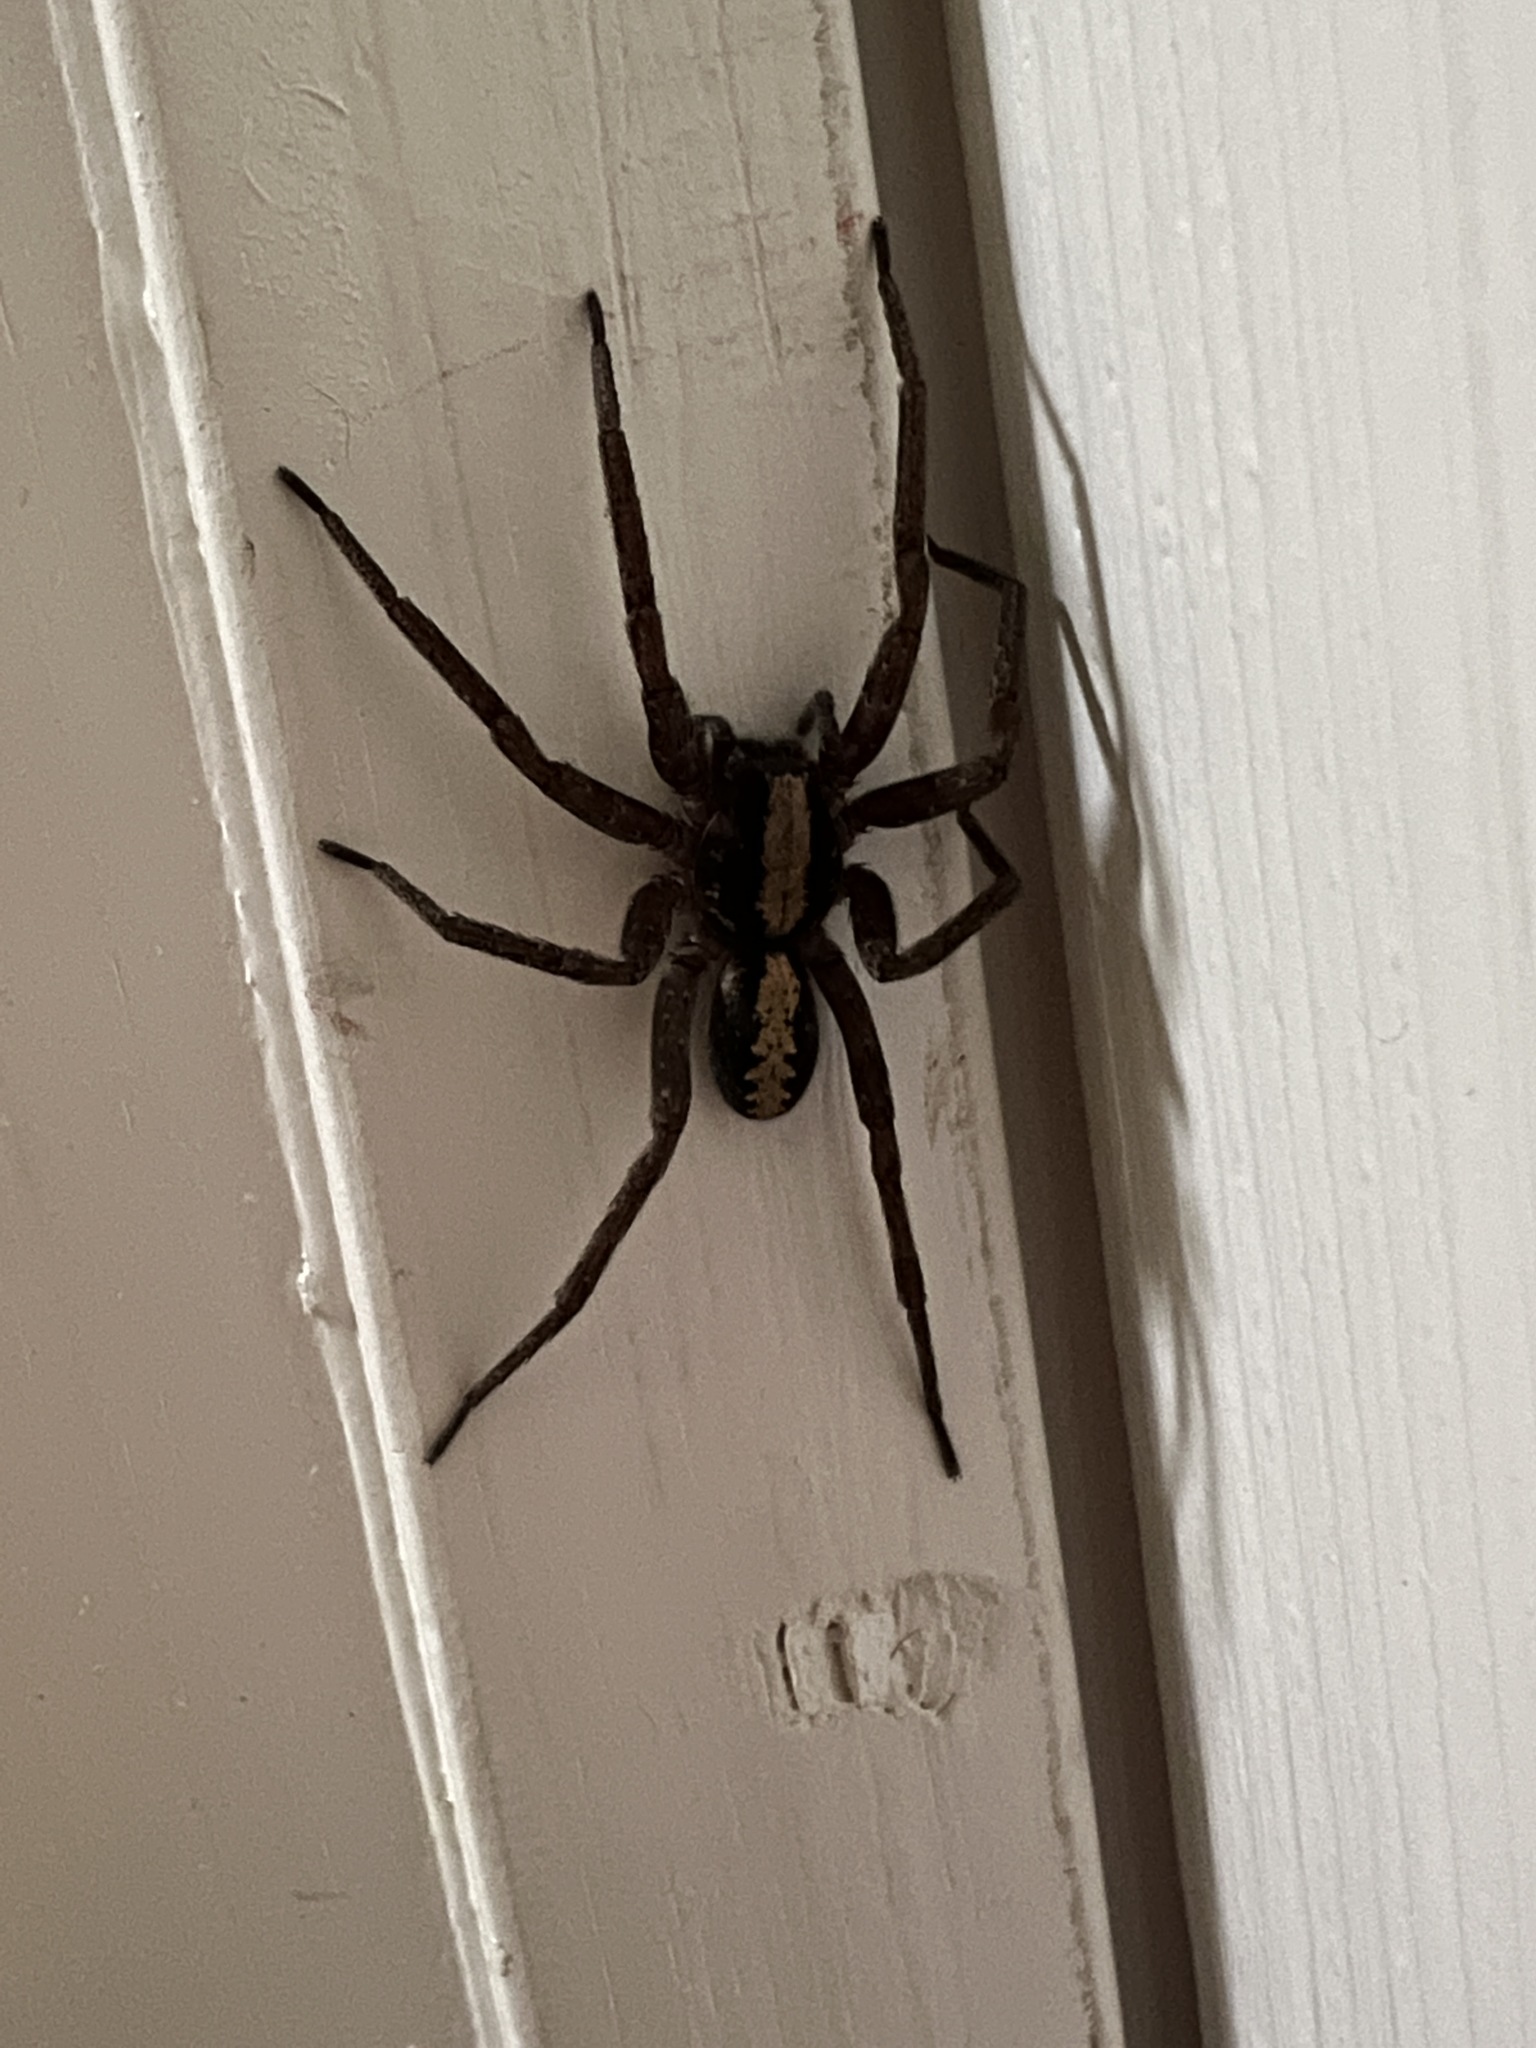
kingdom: Animalia
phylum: Arthropoda
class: Arachnida
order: Araneae
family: Ctenidae
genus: Ctenus
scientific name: Ctenus hibernalis
